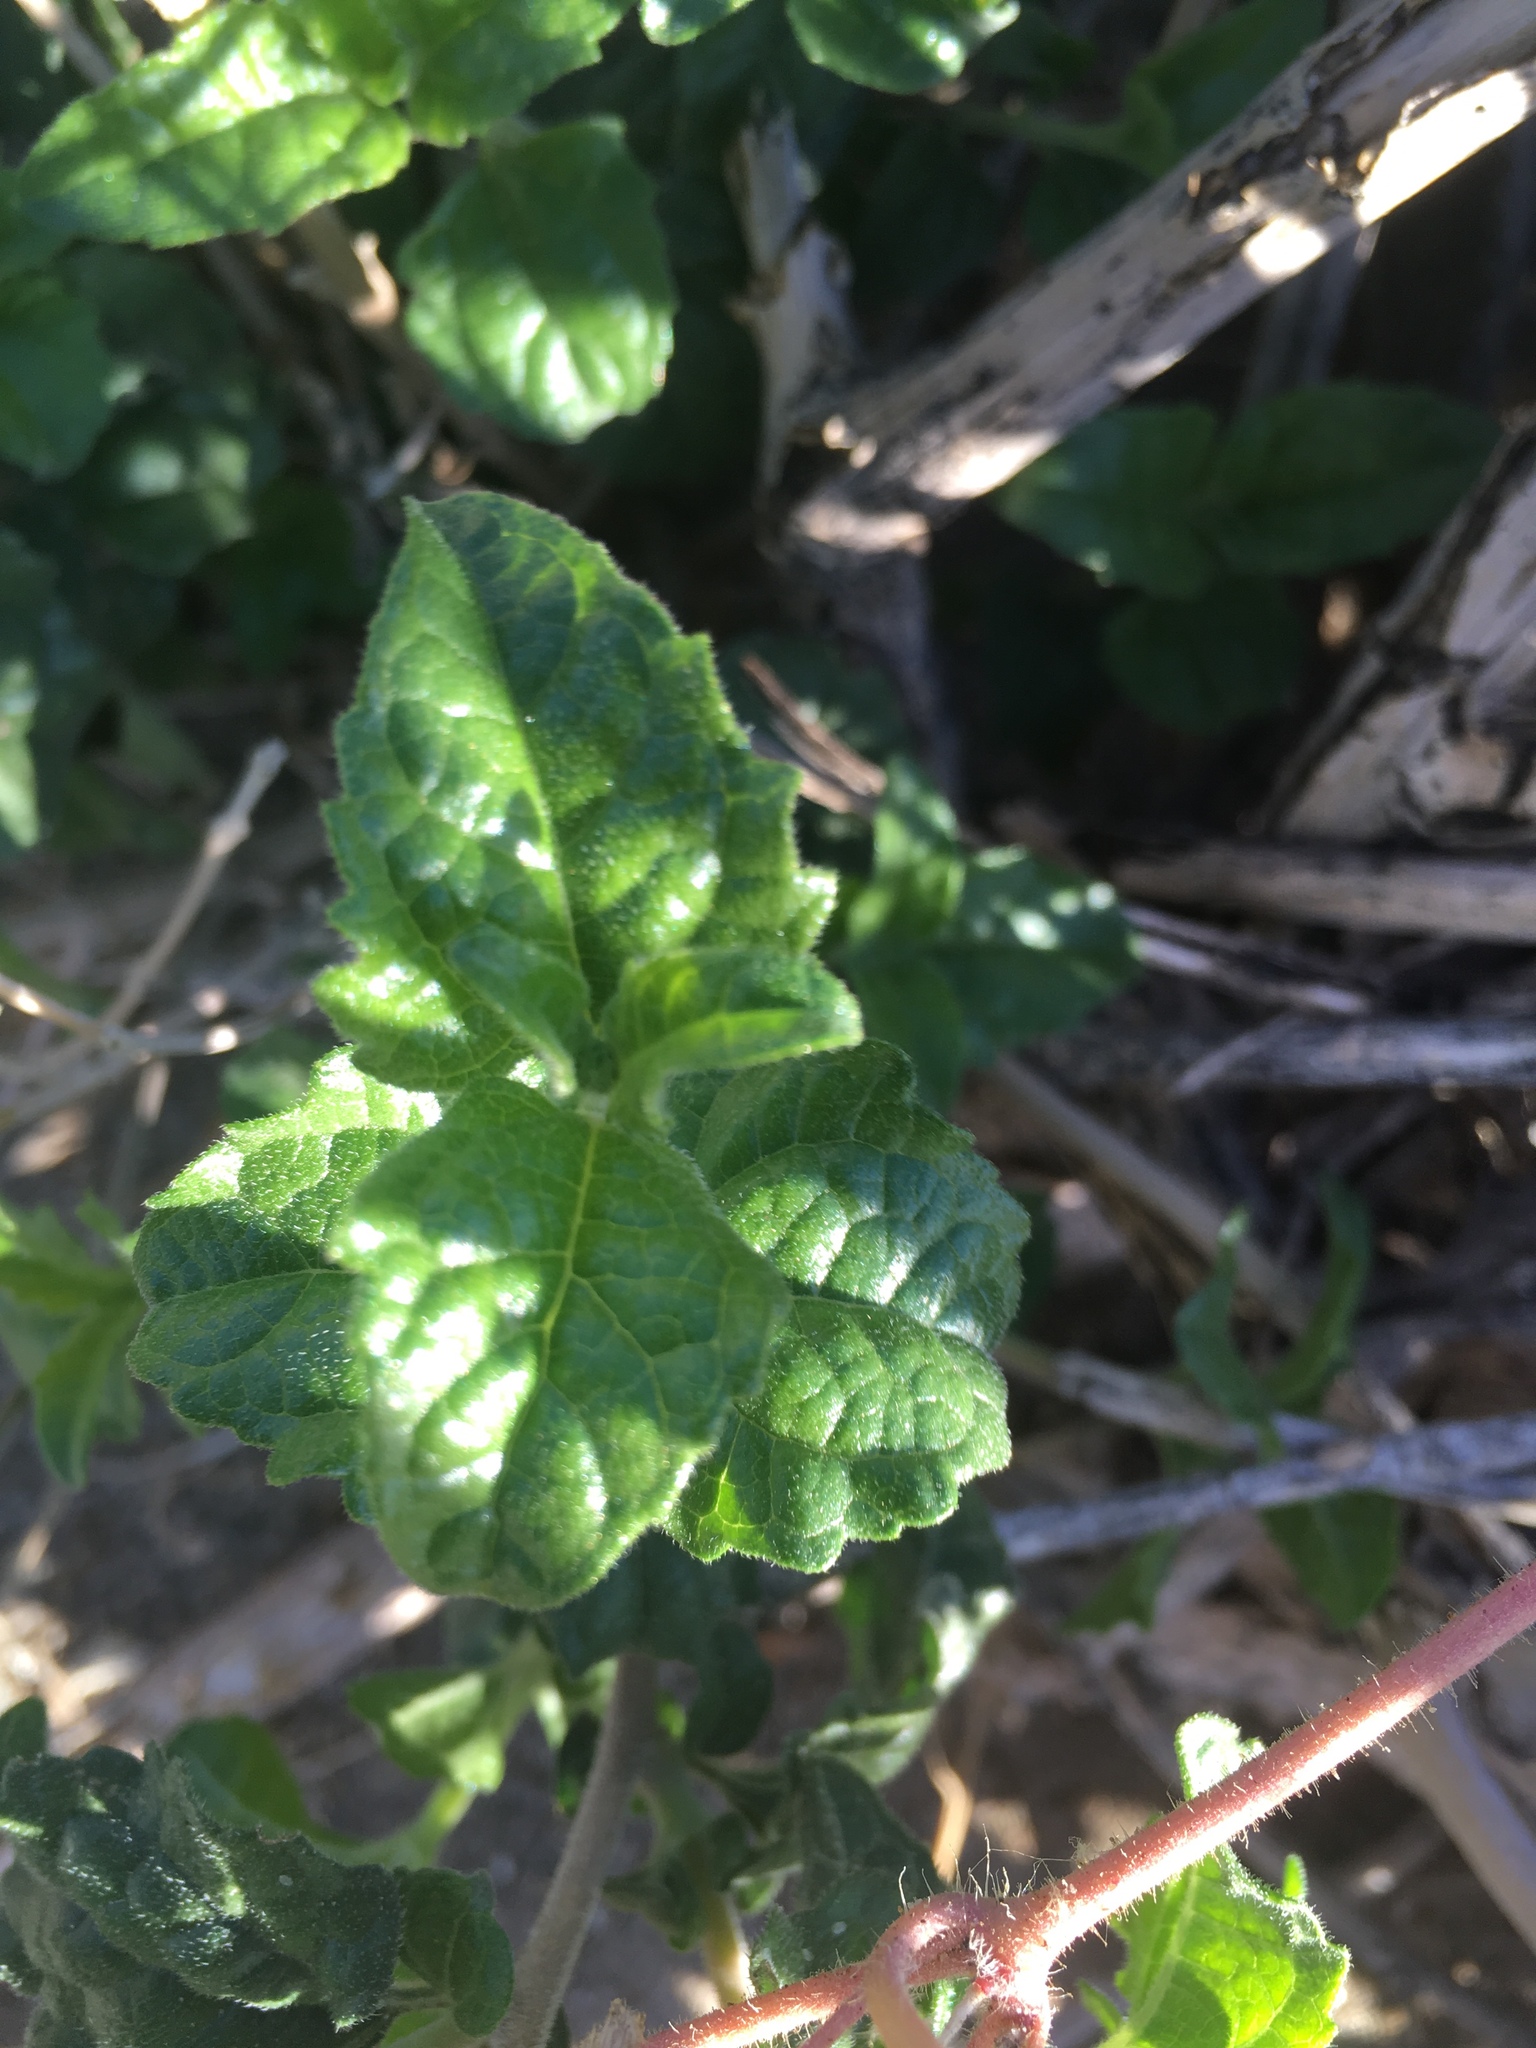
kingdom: Plantae
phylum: Tracheophyta
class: Magnoliopsida
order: Asterales
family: Asteraceae
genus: Bahiopsis
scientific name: Bahiopsis parishii
